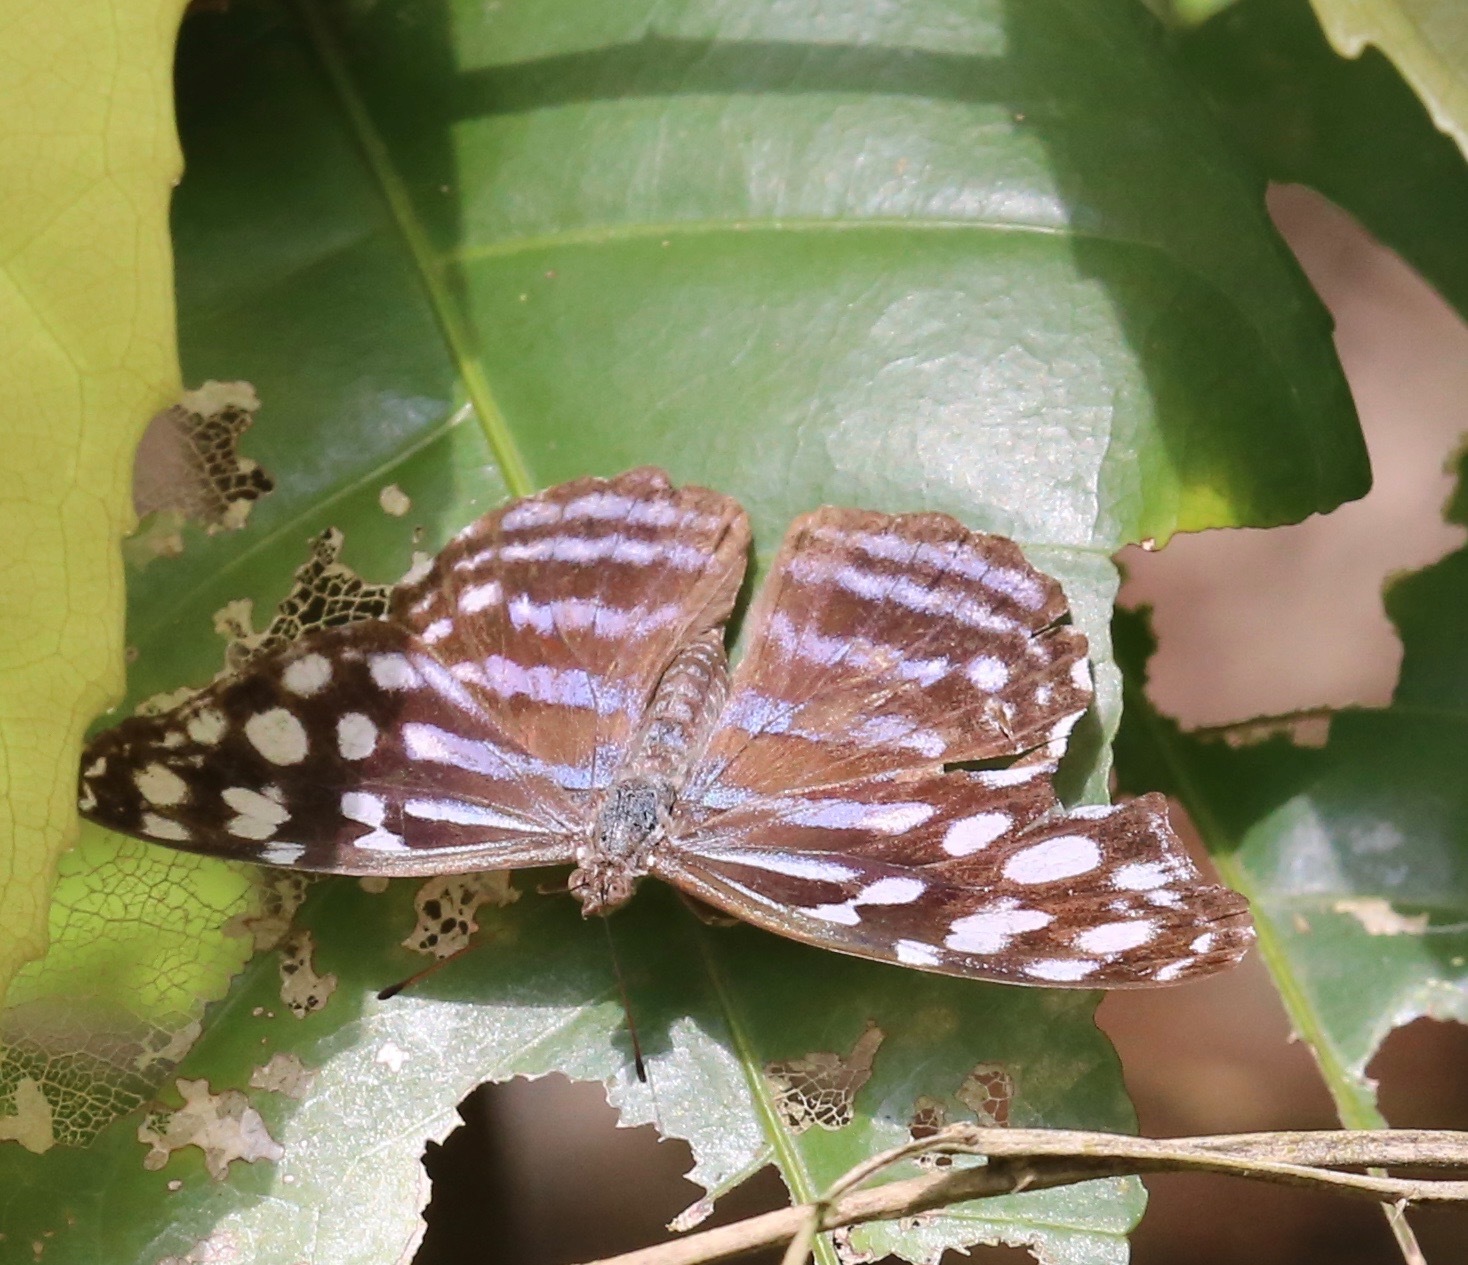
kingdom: Animalia
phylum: Arthropoda
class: Insecta
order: Lepidoptera
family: Nymphalidae
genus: Myscelia
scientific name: Myscelia leucocyana
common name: Pale bluewing
